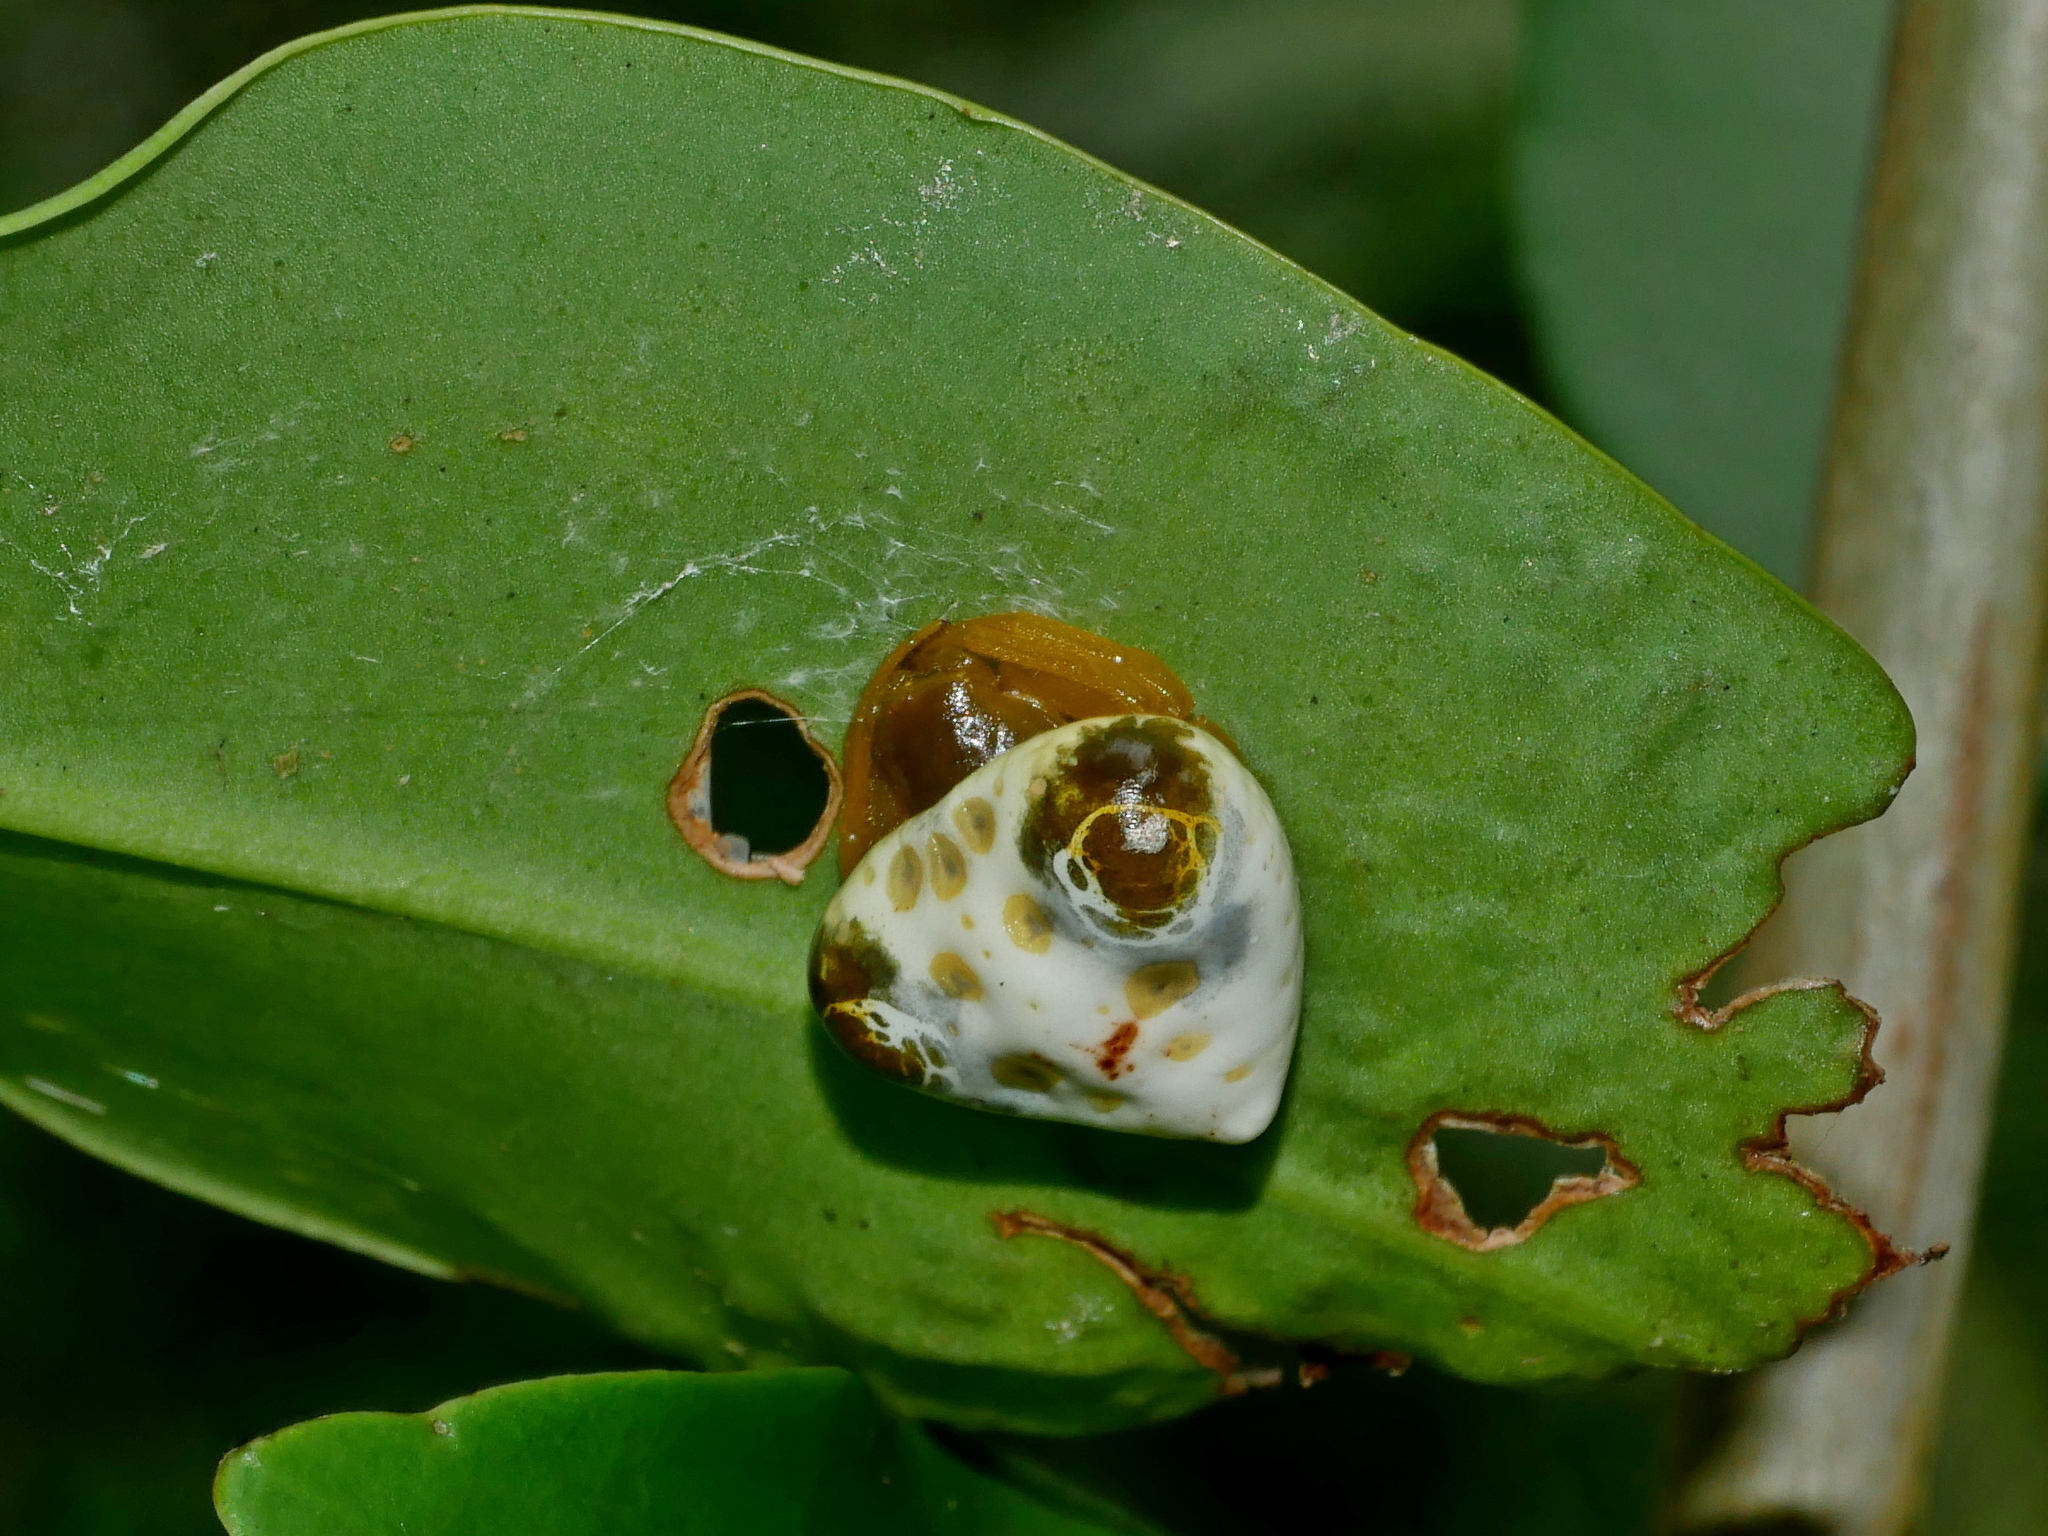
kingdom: Animalia
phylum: Arthropoda
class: Arachnida
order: Araneae
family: Araneidae
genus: Cyrtarachne
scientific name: Cyrtarachne bufo
